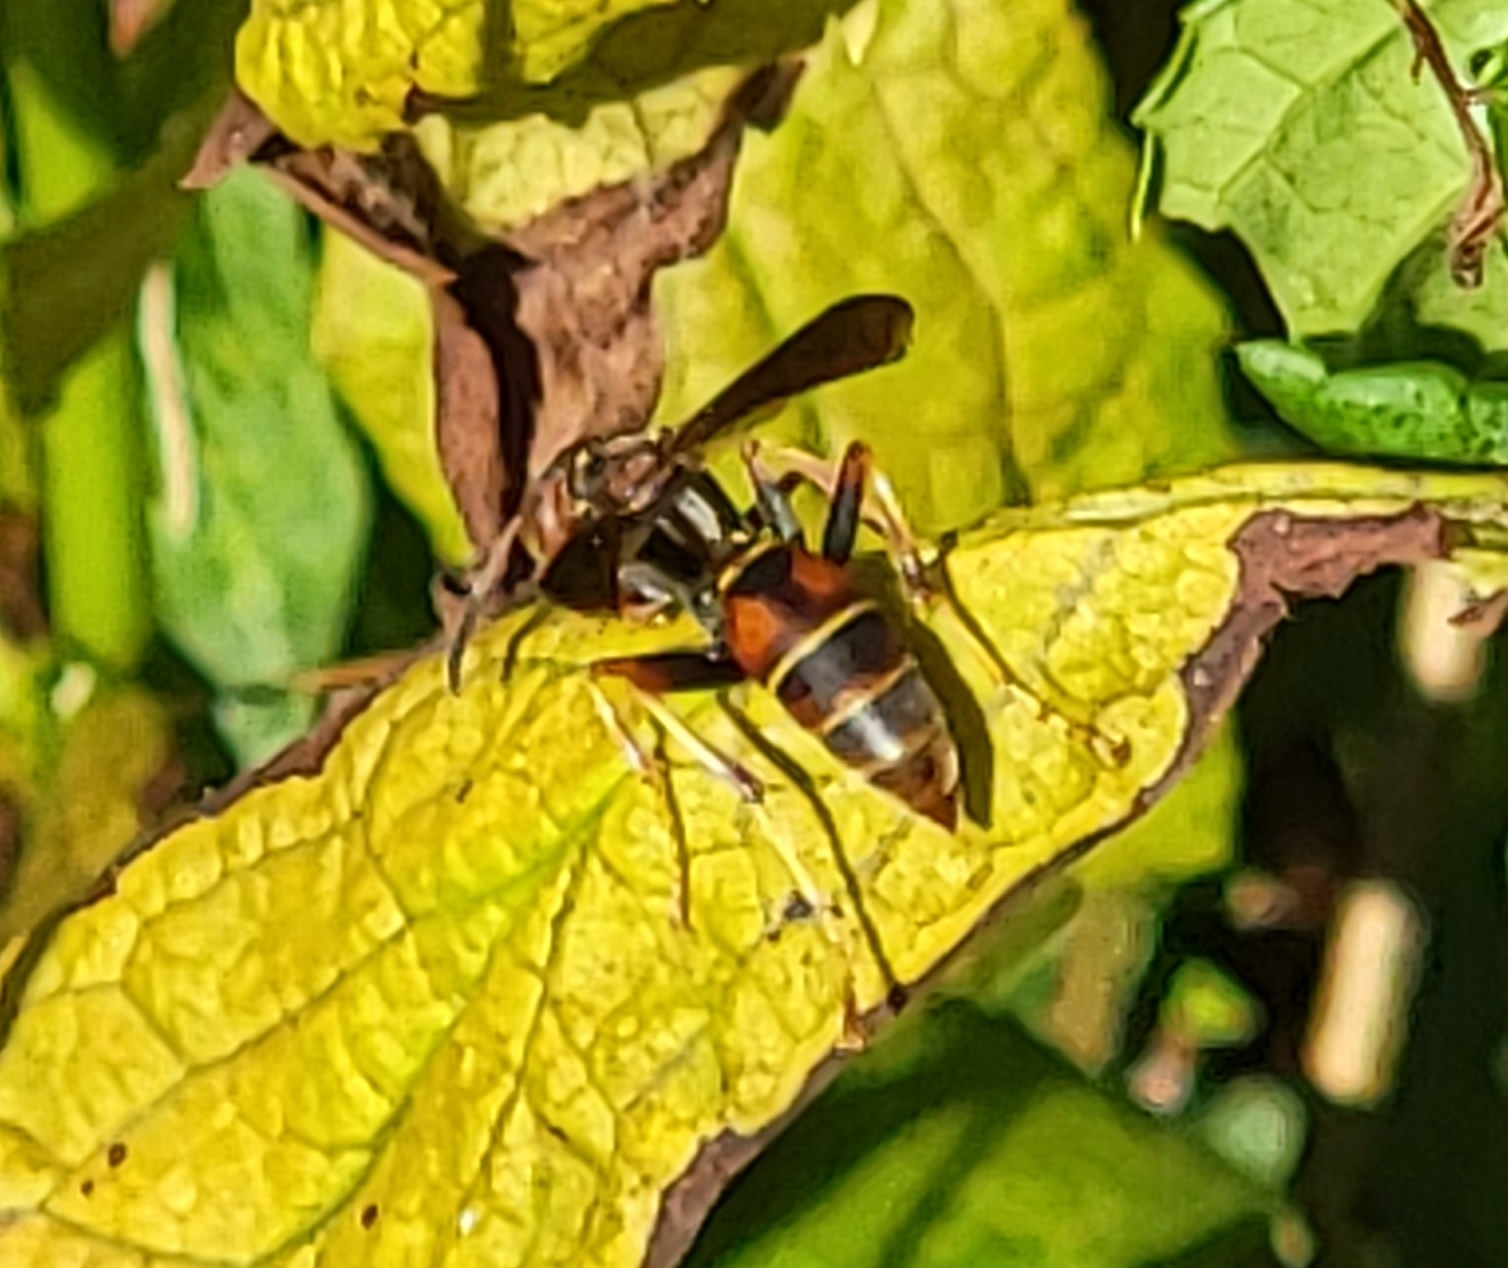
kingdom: Animalia
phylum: Arthropoda
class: Insecta
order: Hymenoptera
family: Eumenidae
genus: Polistes
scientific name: Polistes fuscatus
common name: Dark paper wasp
